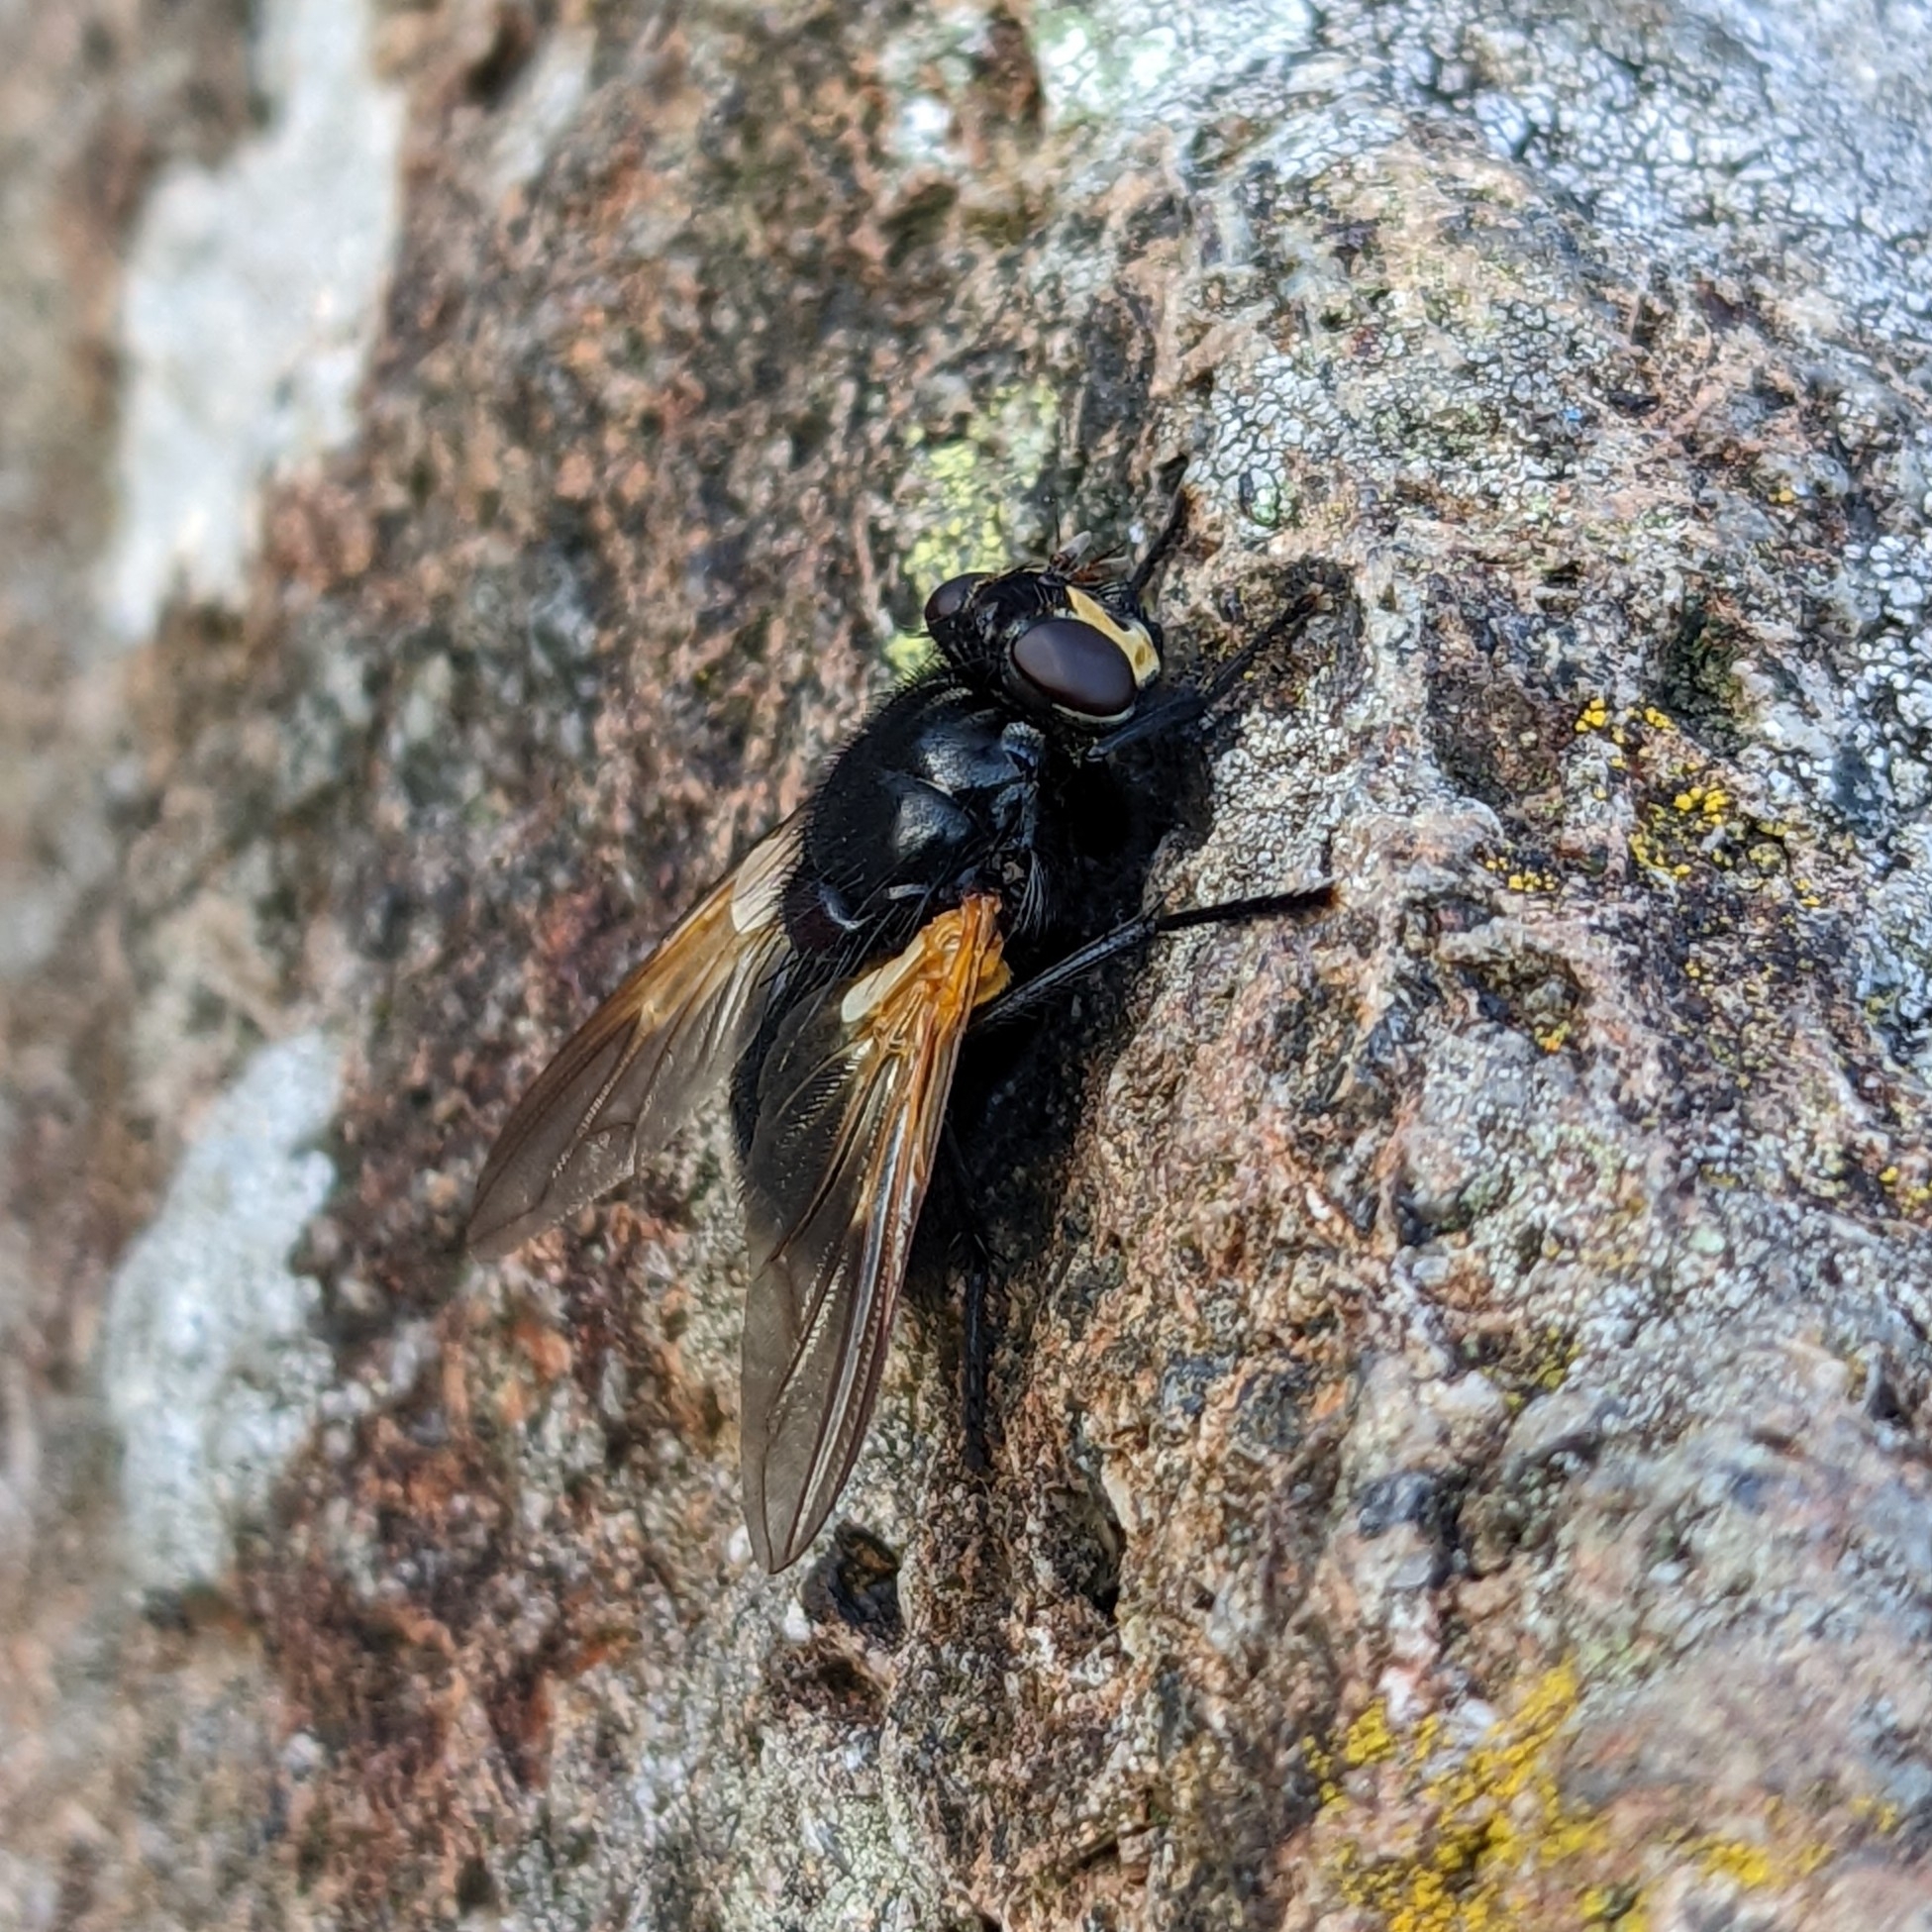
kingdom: Animalia
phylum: Arthropoda
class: Insecta
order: Diptera
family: Muscidae
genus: Mesembrina
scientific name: Mesembrina meridiana
